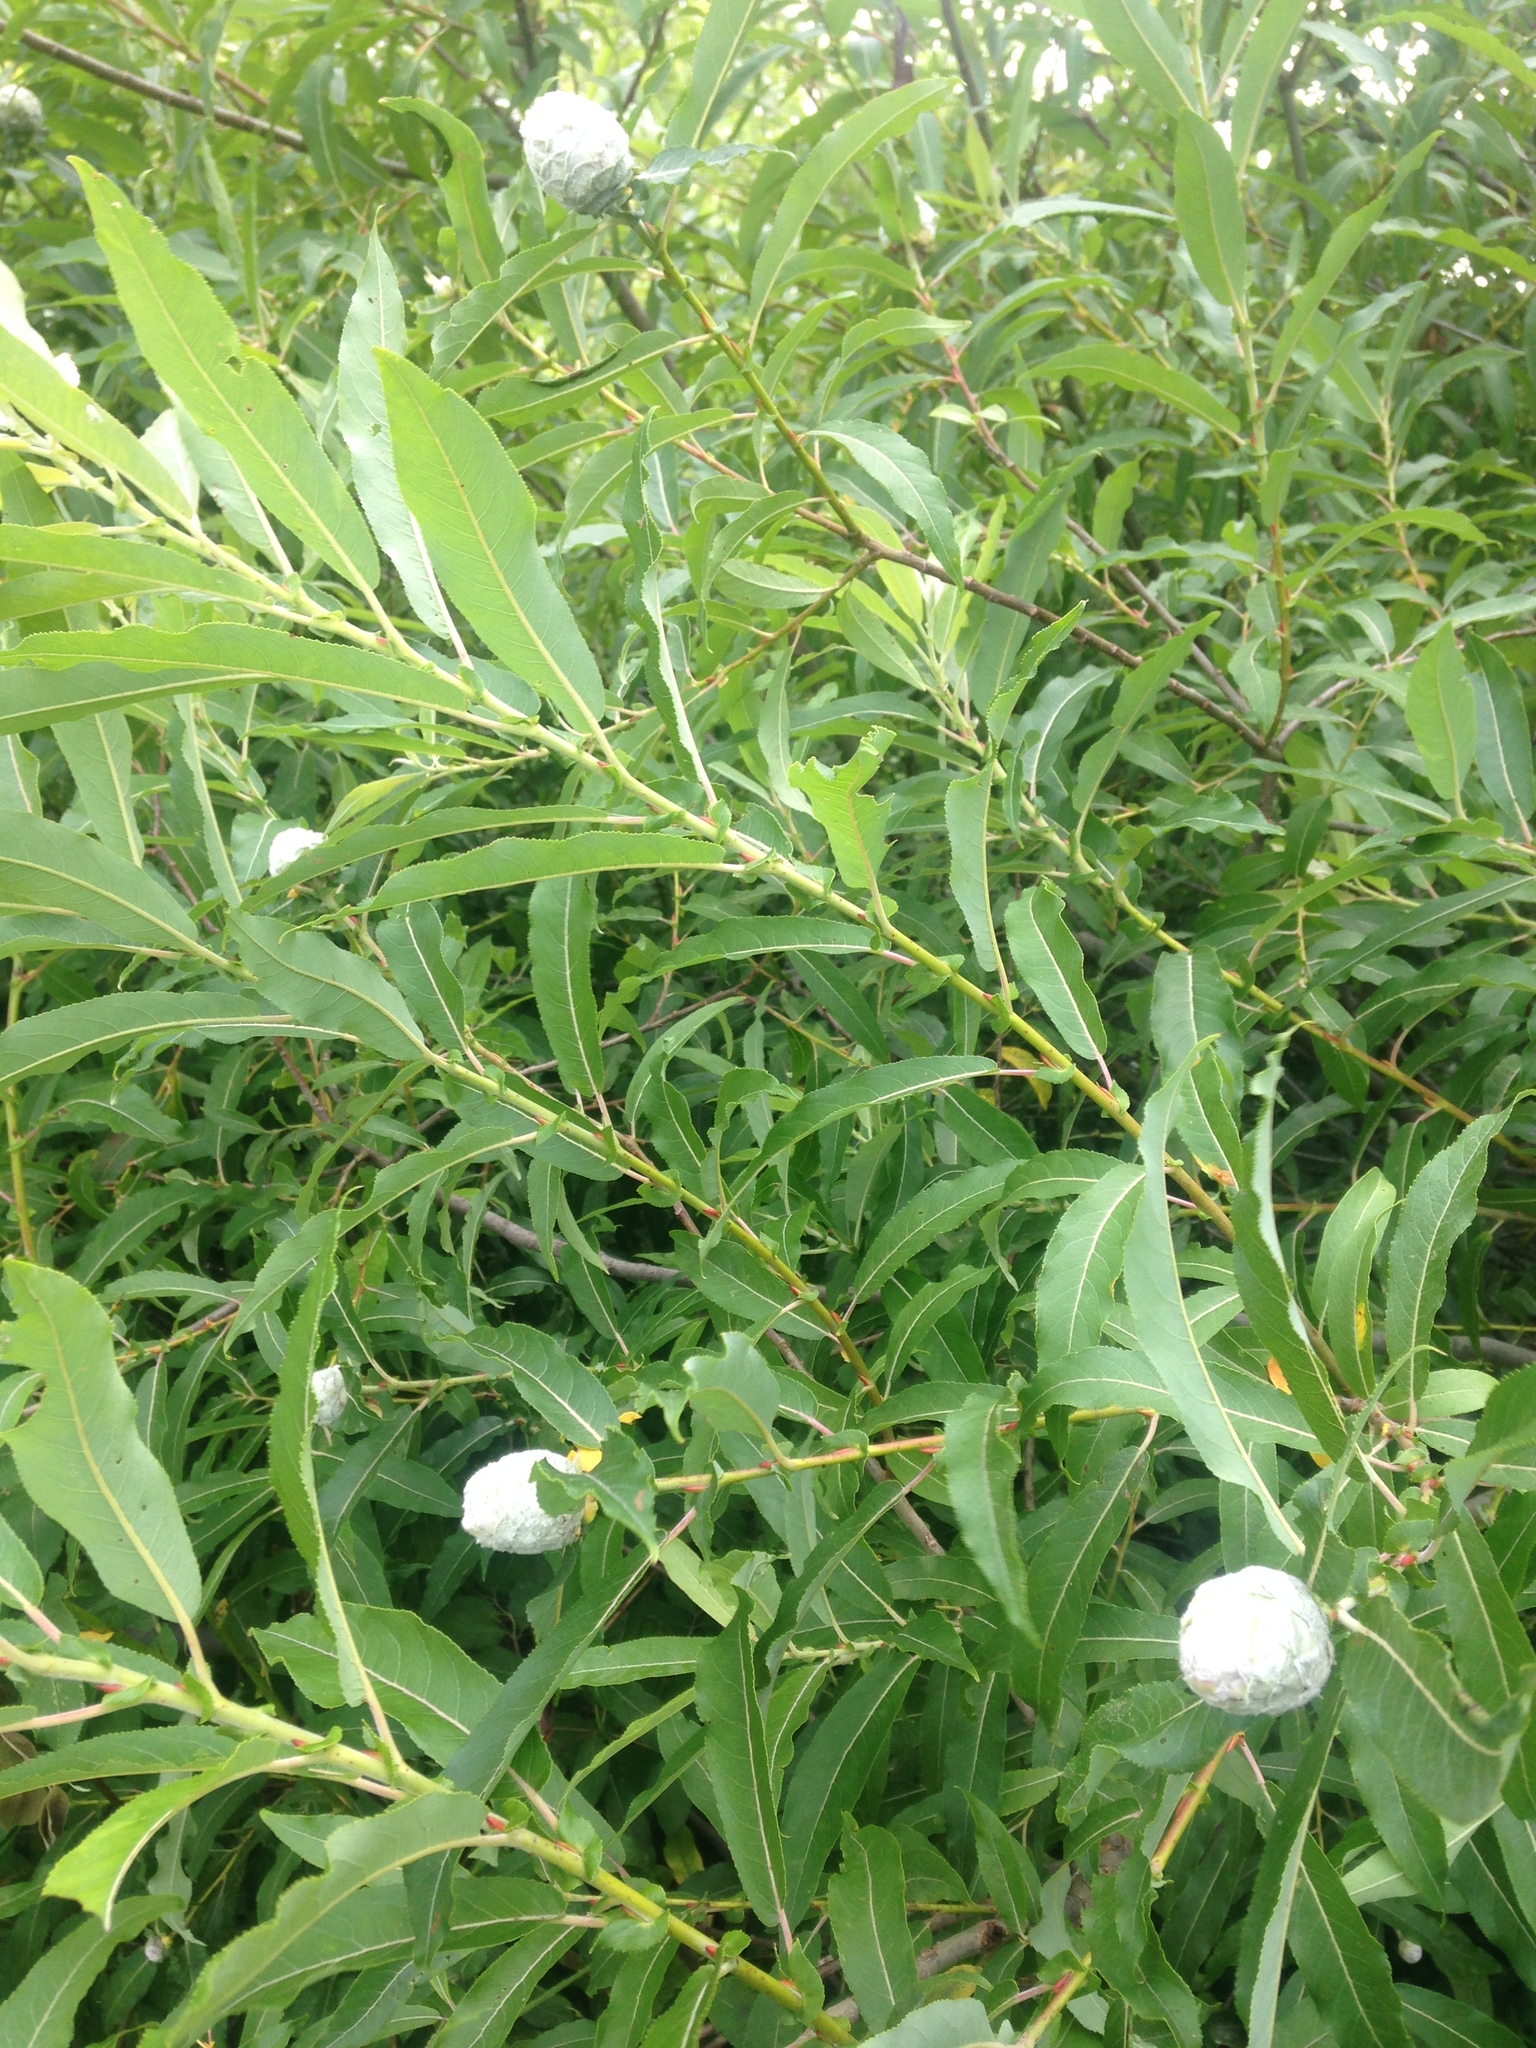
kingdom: Animalia
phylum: Arthropoda
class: Insecta
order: Diptera
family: Cecidomyiidae
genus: Rabdophaga
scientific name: Rabdophaga strobiloides
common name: Willow pinecone gall midge
